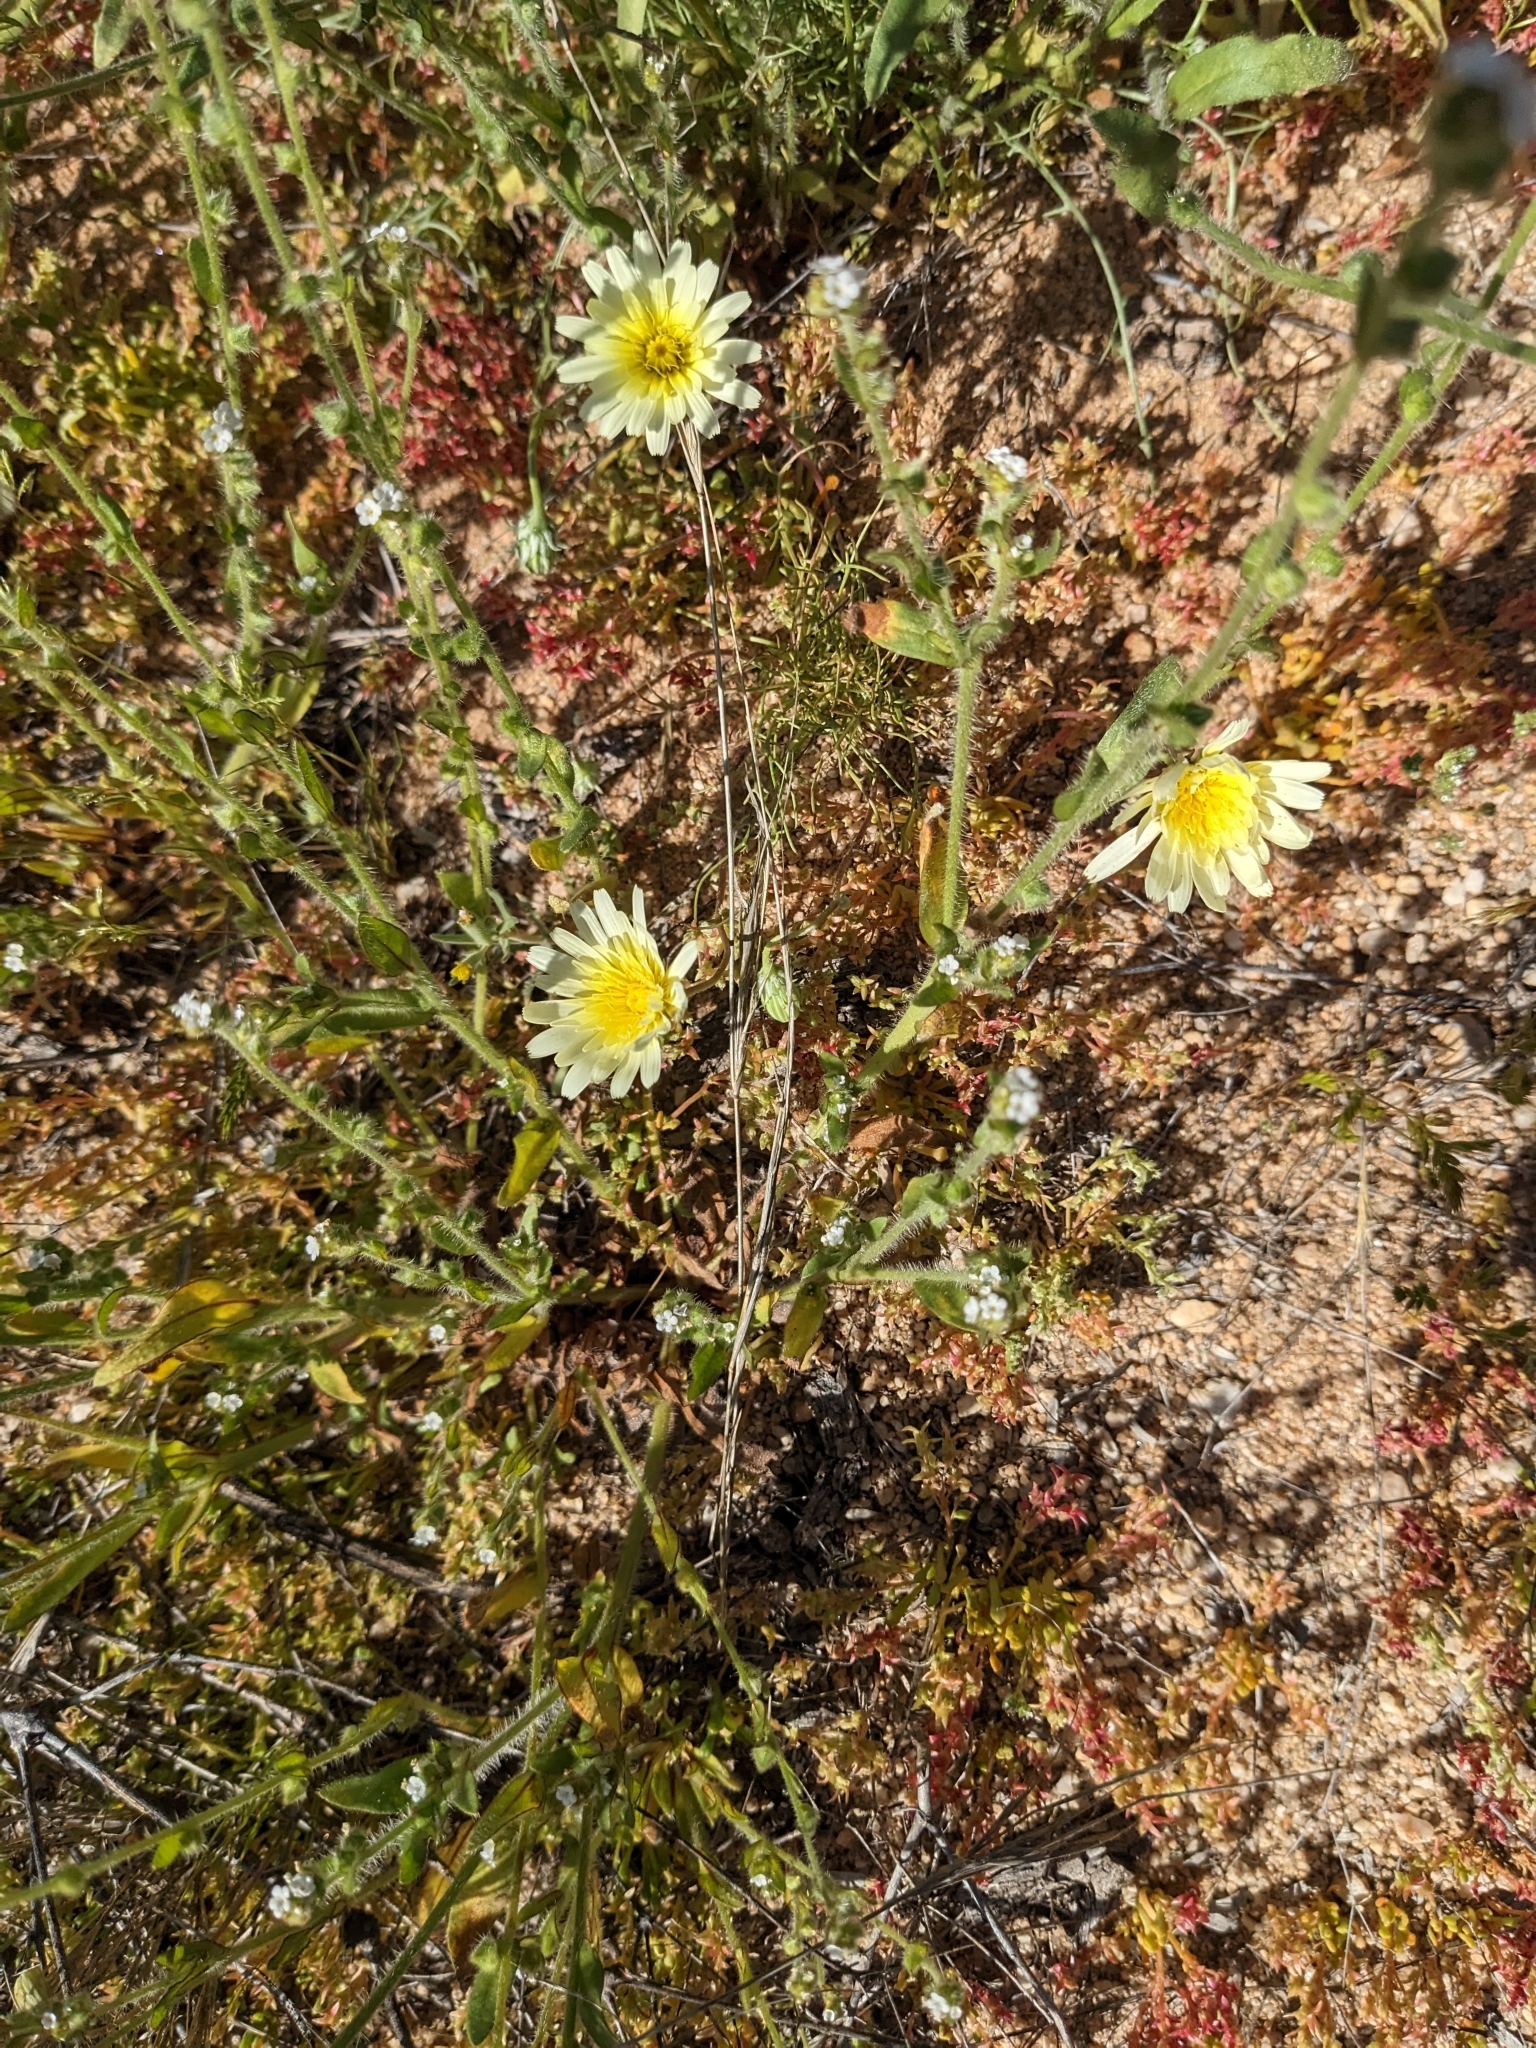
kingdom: Plantae
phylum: Tracheophyta
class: Magnoliopsida
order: Asterales
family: Asteraceae
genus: Malacothrix
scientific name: Malacothrix glabrata
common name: Smooth desert-dandelion
